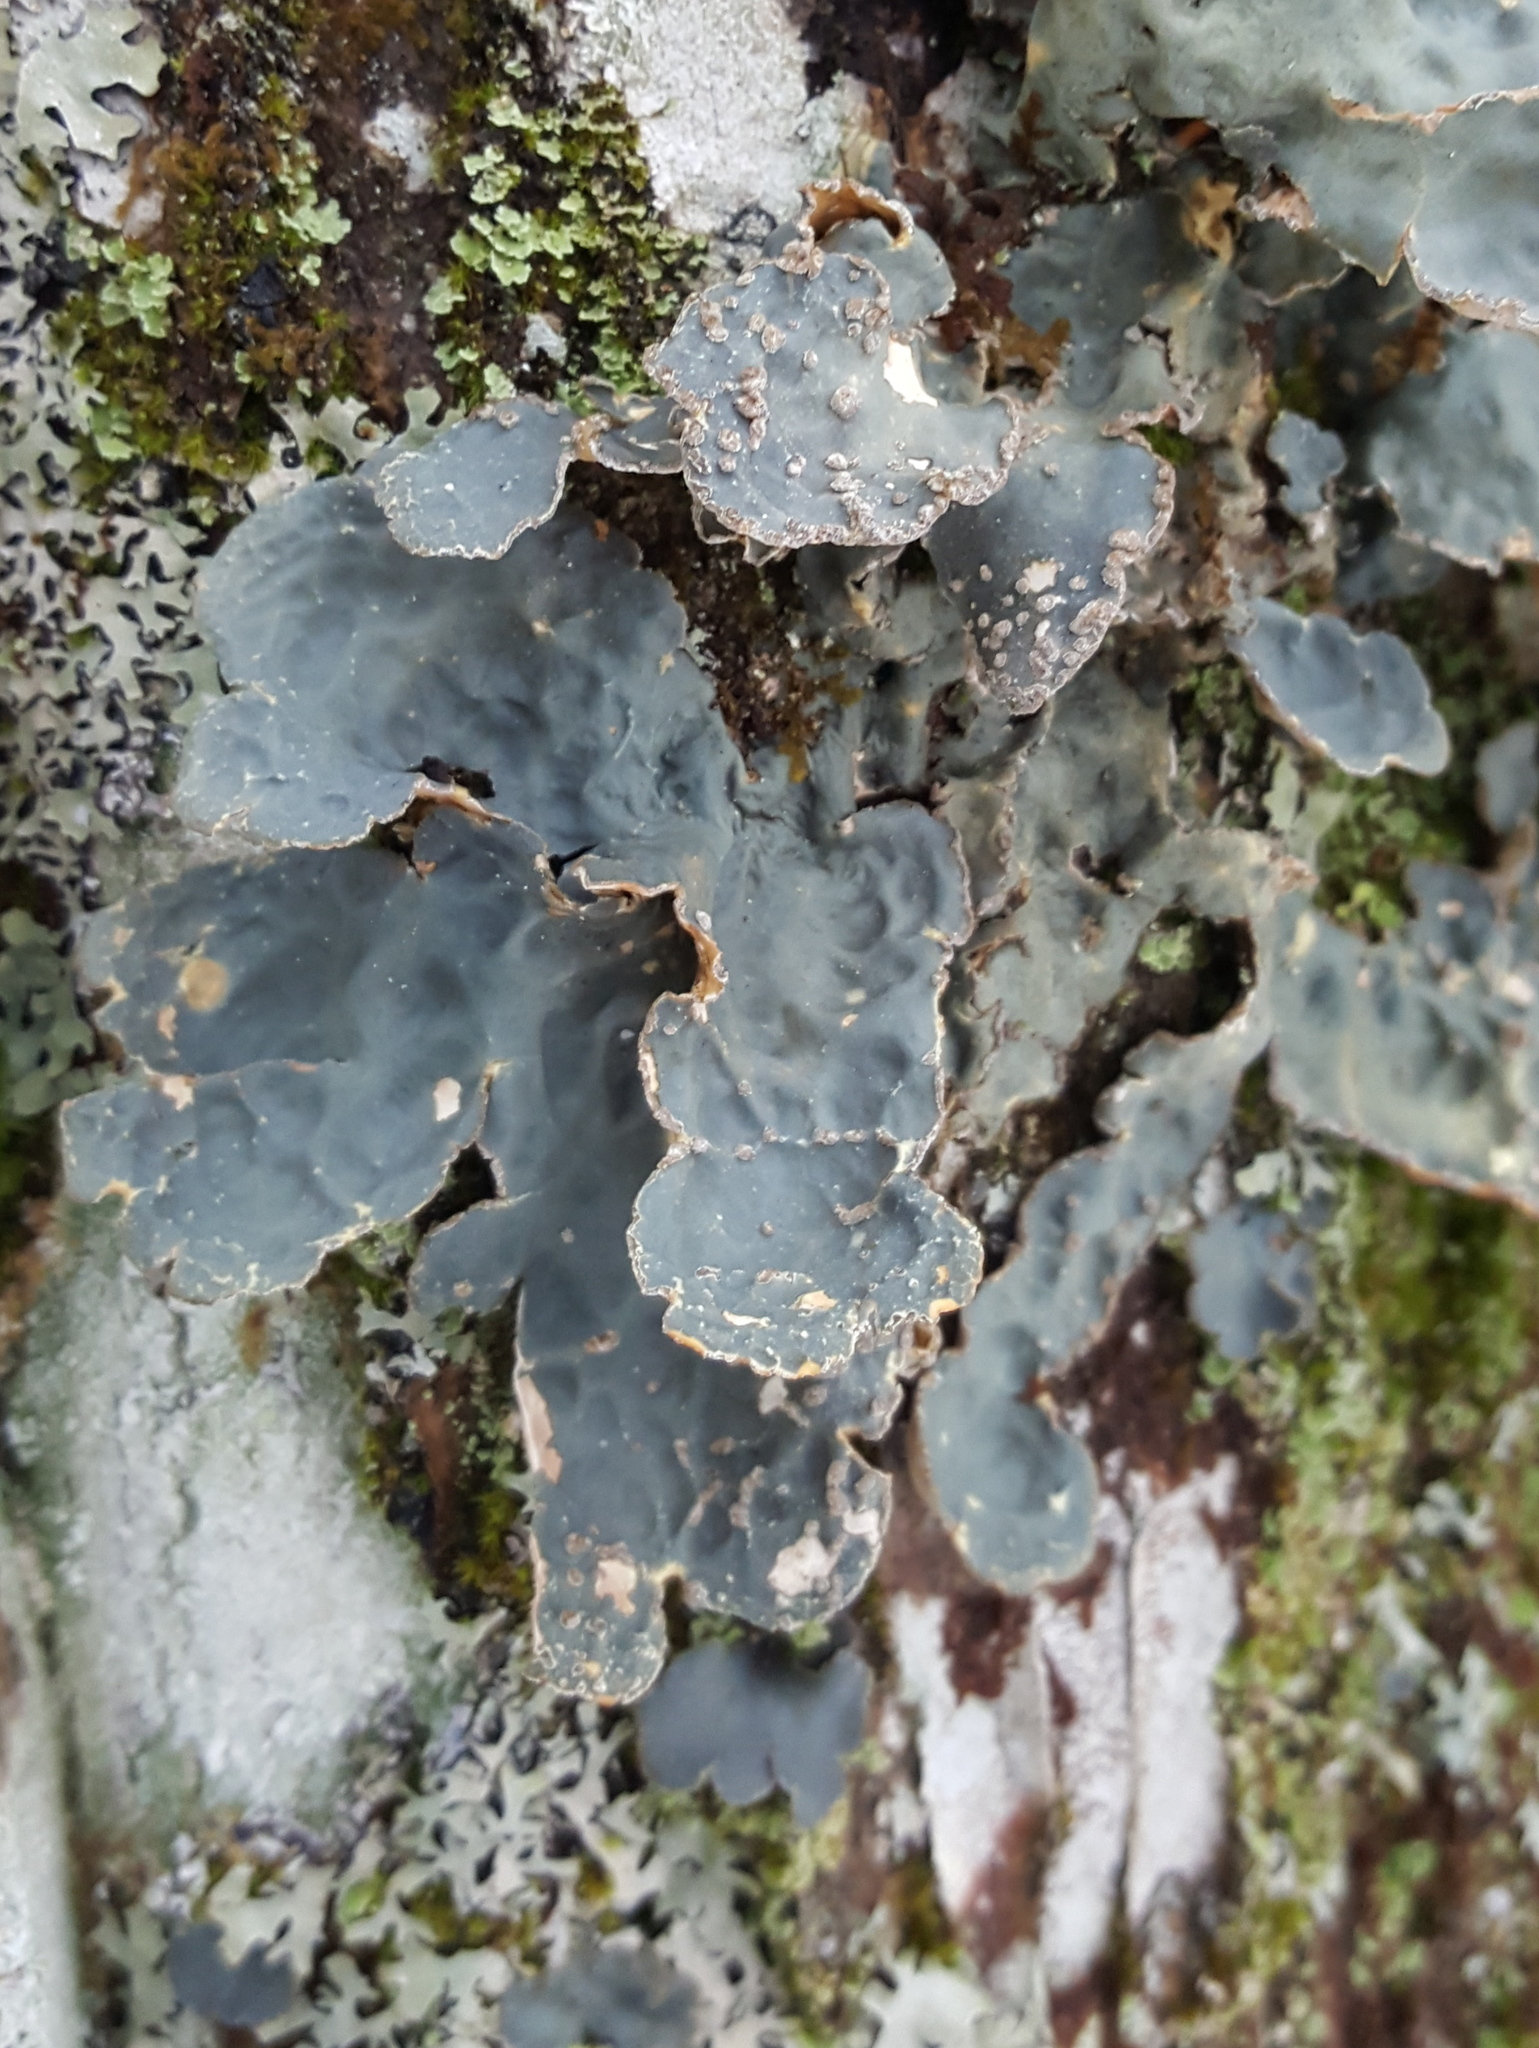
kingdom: Fungi
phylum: Ascomycota
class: Lecanoromycetes
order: Peltigerales
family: Lobariaceae
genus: Lobarina
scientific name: Lobarina scrobiculata
